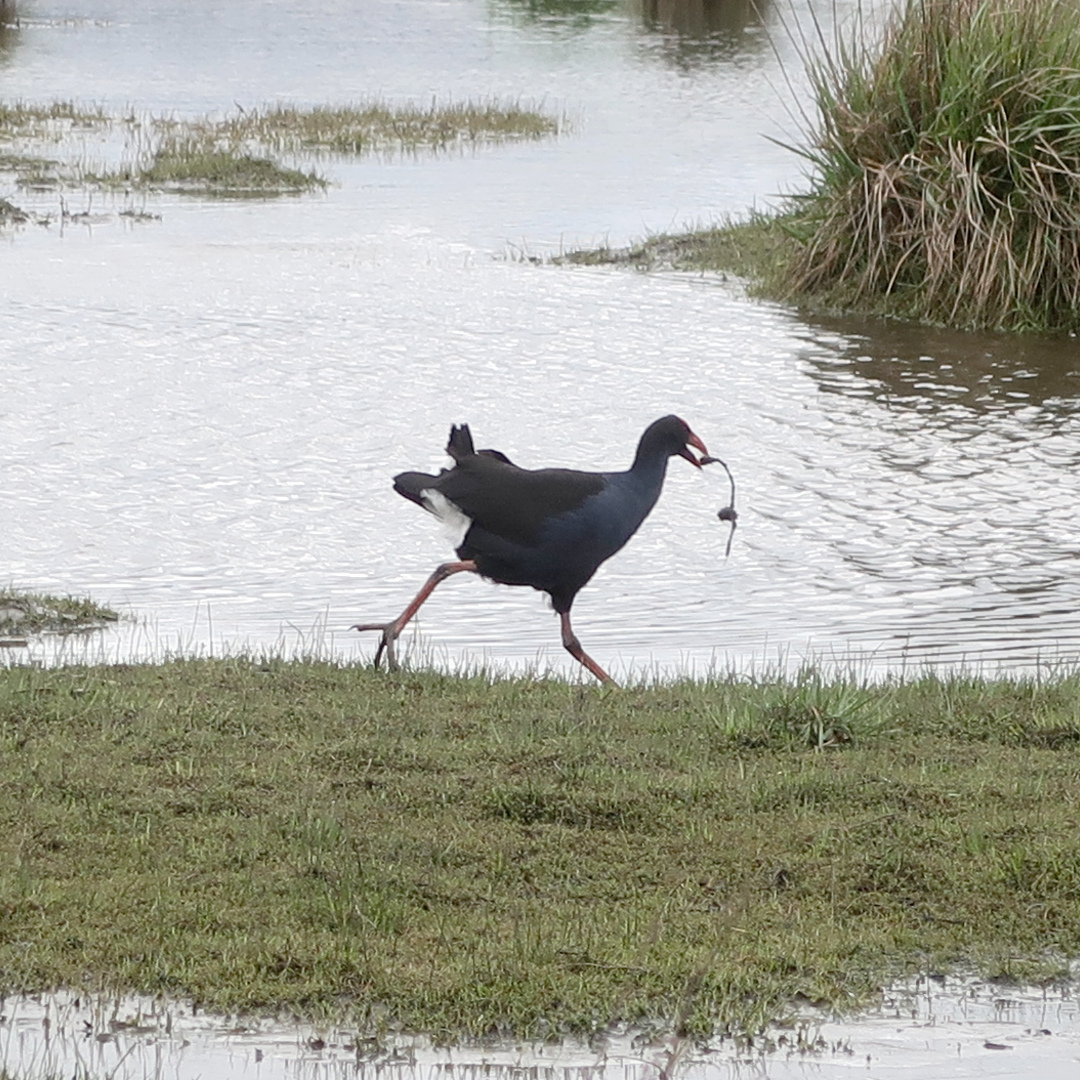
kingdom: Animalia
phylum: Chordata
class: Aves
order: Gruiformes
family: Rallidae
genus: Porphyrio
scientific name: Porphyrio melanotus
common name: Australasian swamphen
